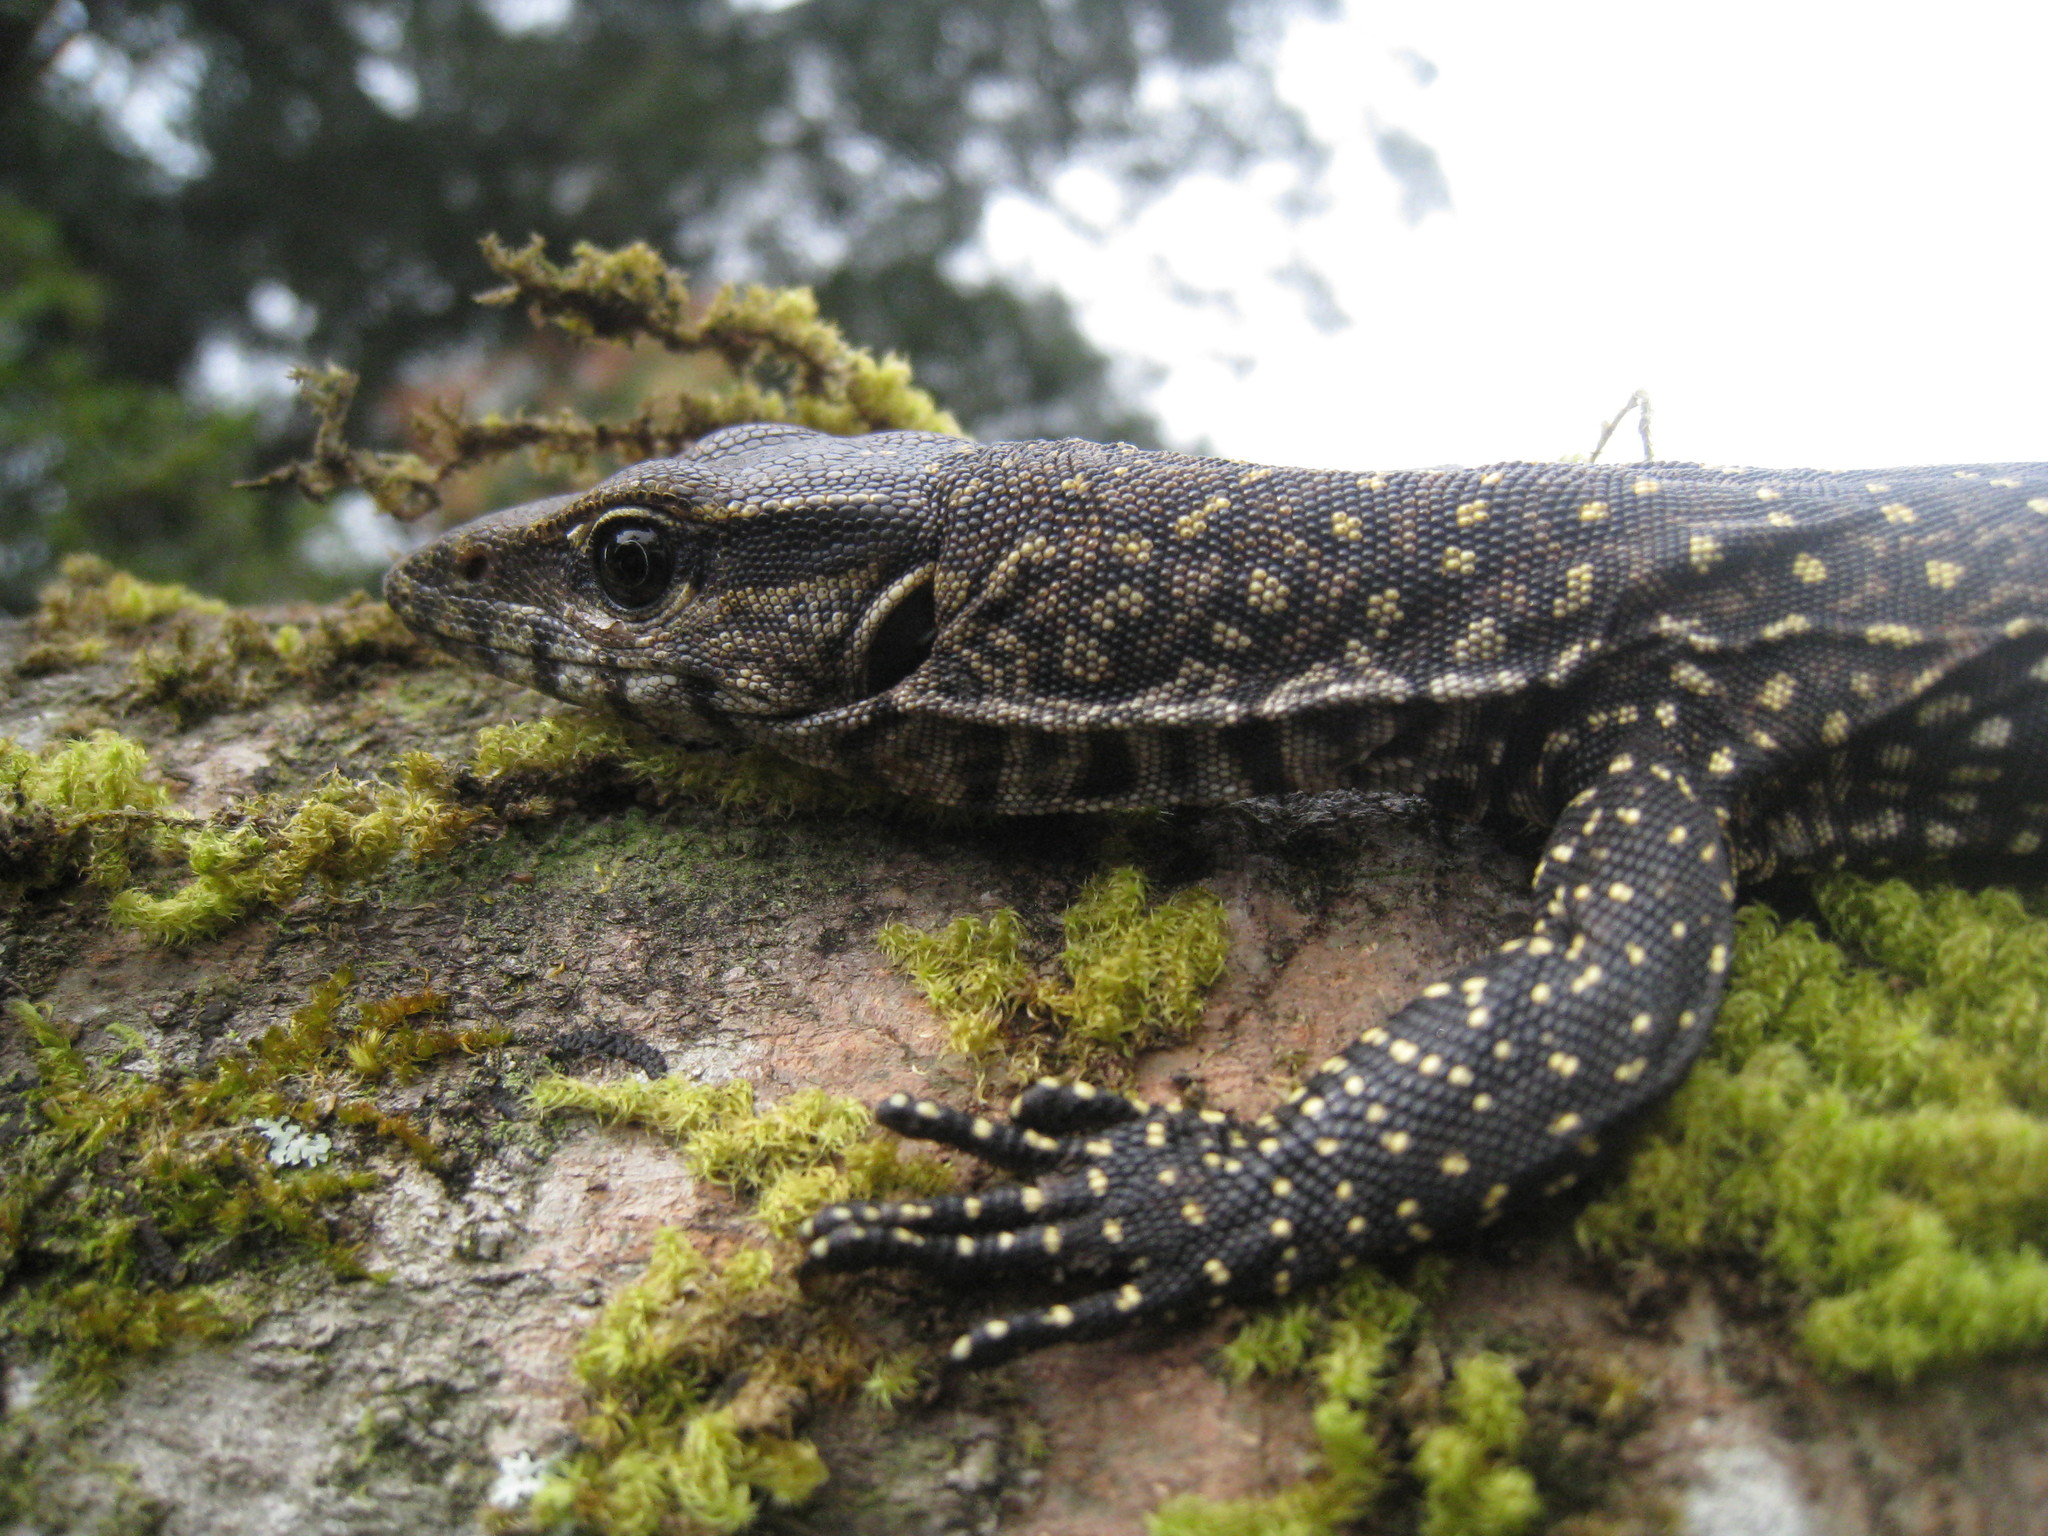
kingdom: Animalia
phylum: Chordata
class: Squamata
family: Varanidae
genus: Varanus
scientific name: Varanus bengalensis
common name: Bengal monitor
